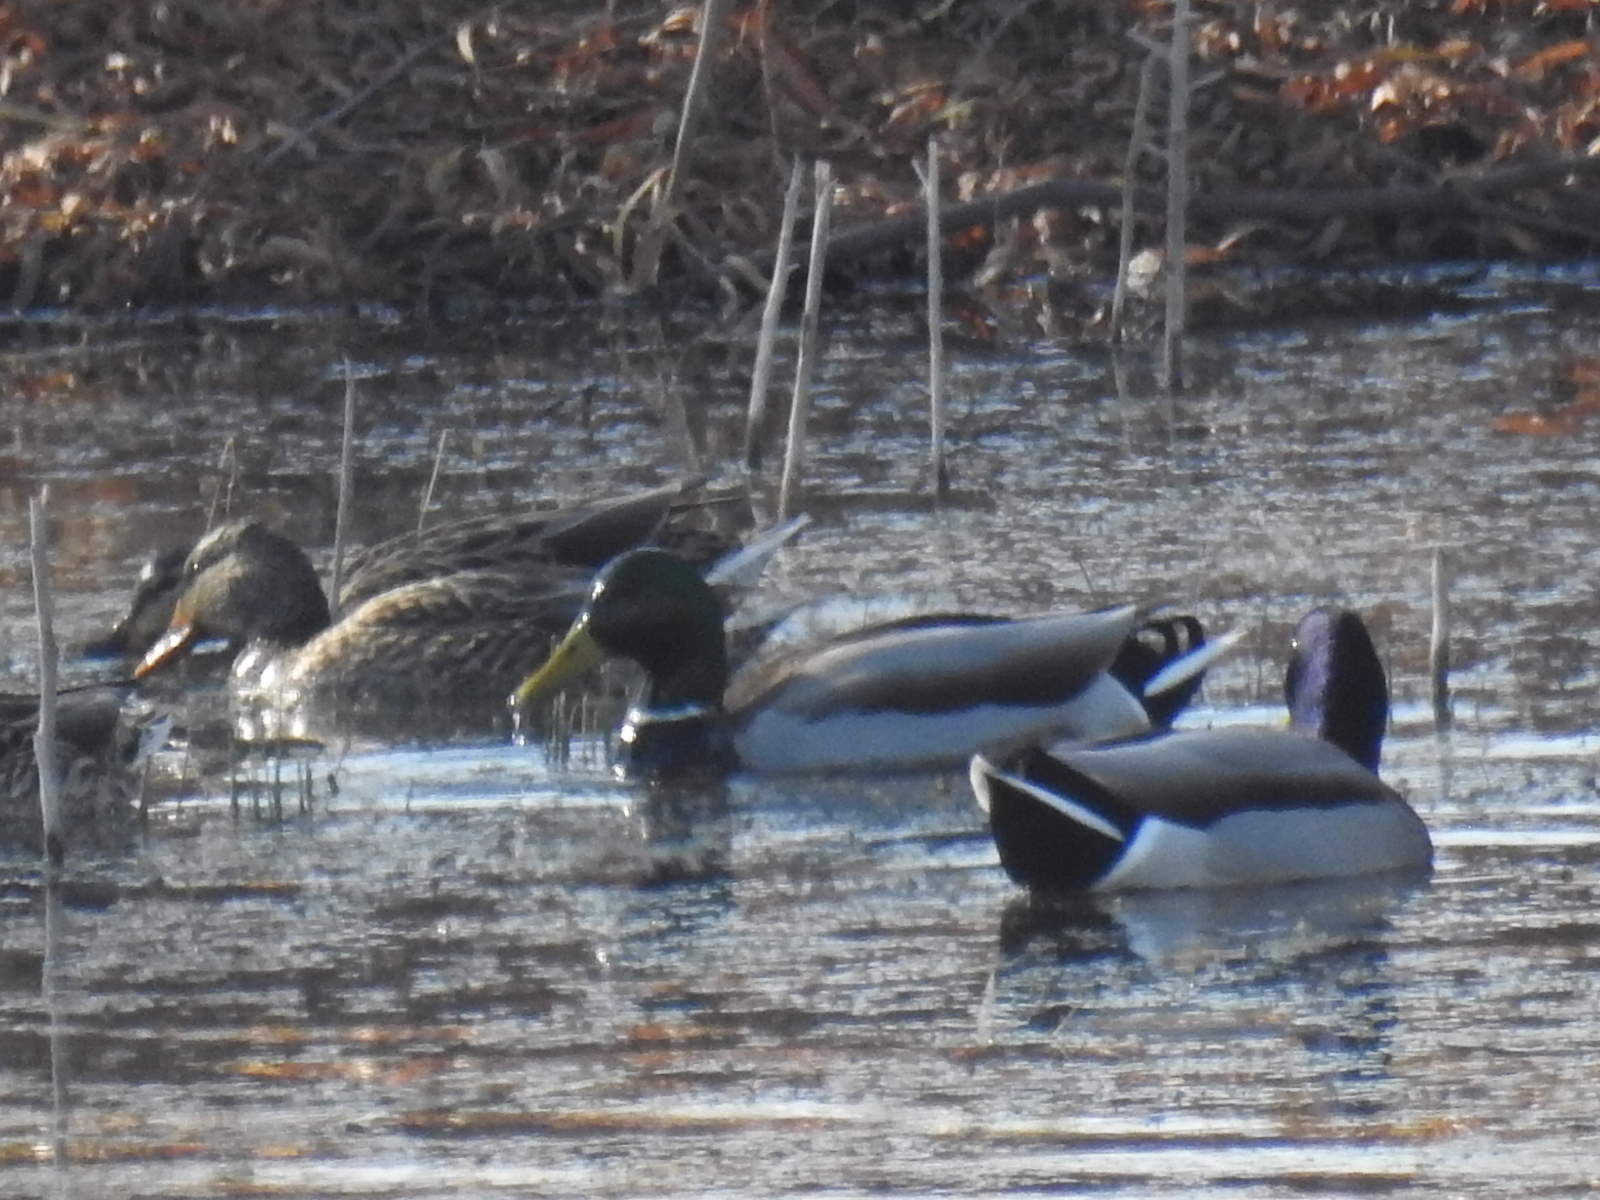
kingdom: Animalia
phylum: Chordata
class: Aves
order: Anseriformes
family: Anatidae
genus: Anas
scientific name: Anas platyrhynchos
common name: Mallard
